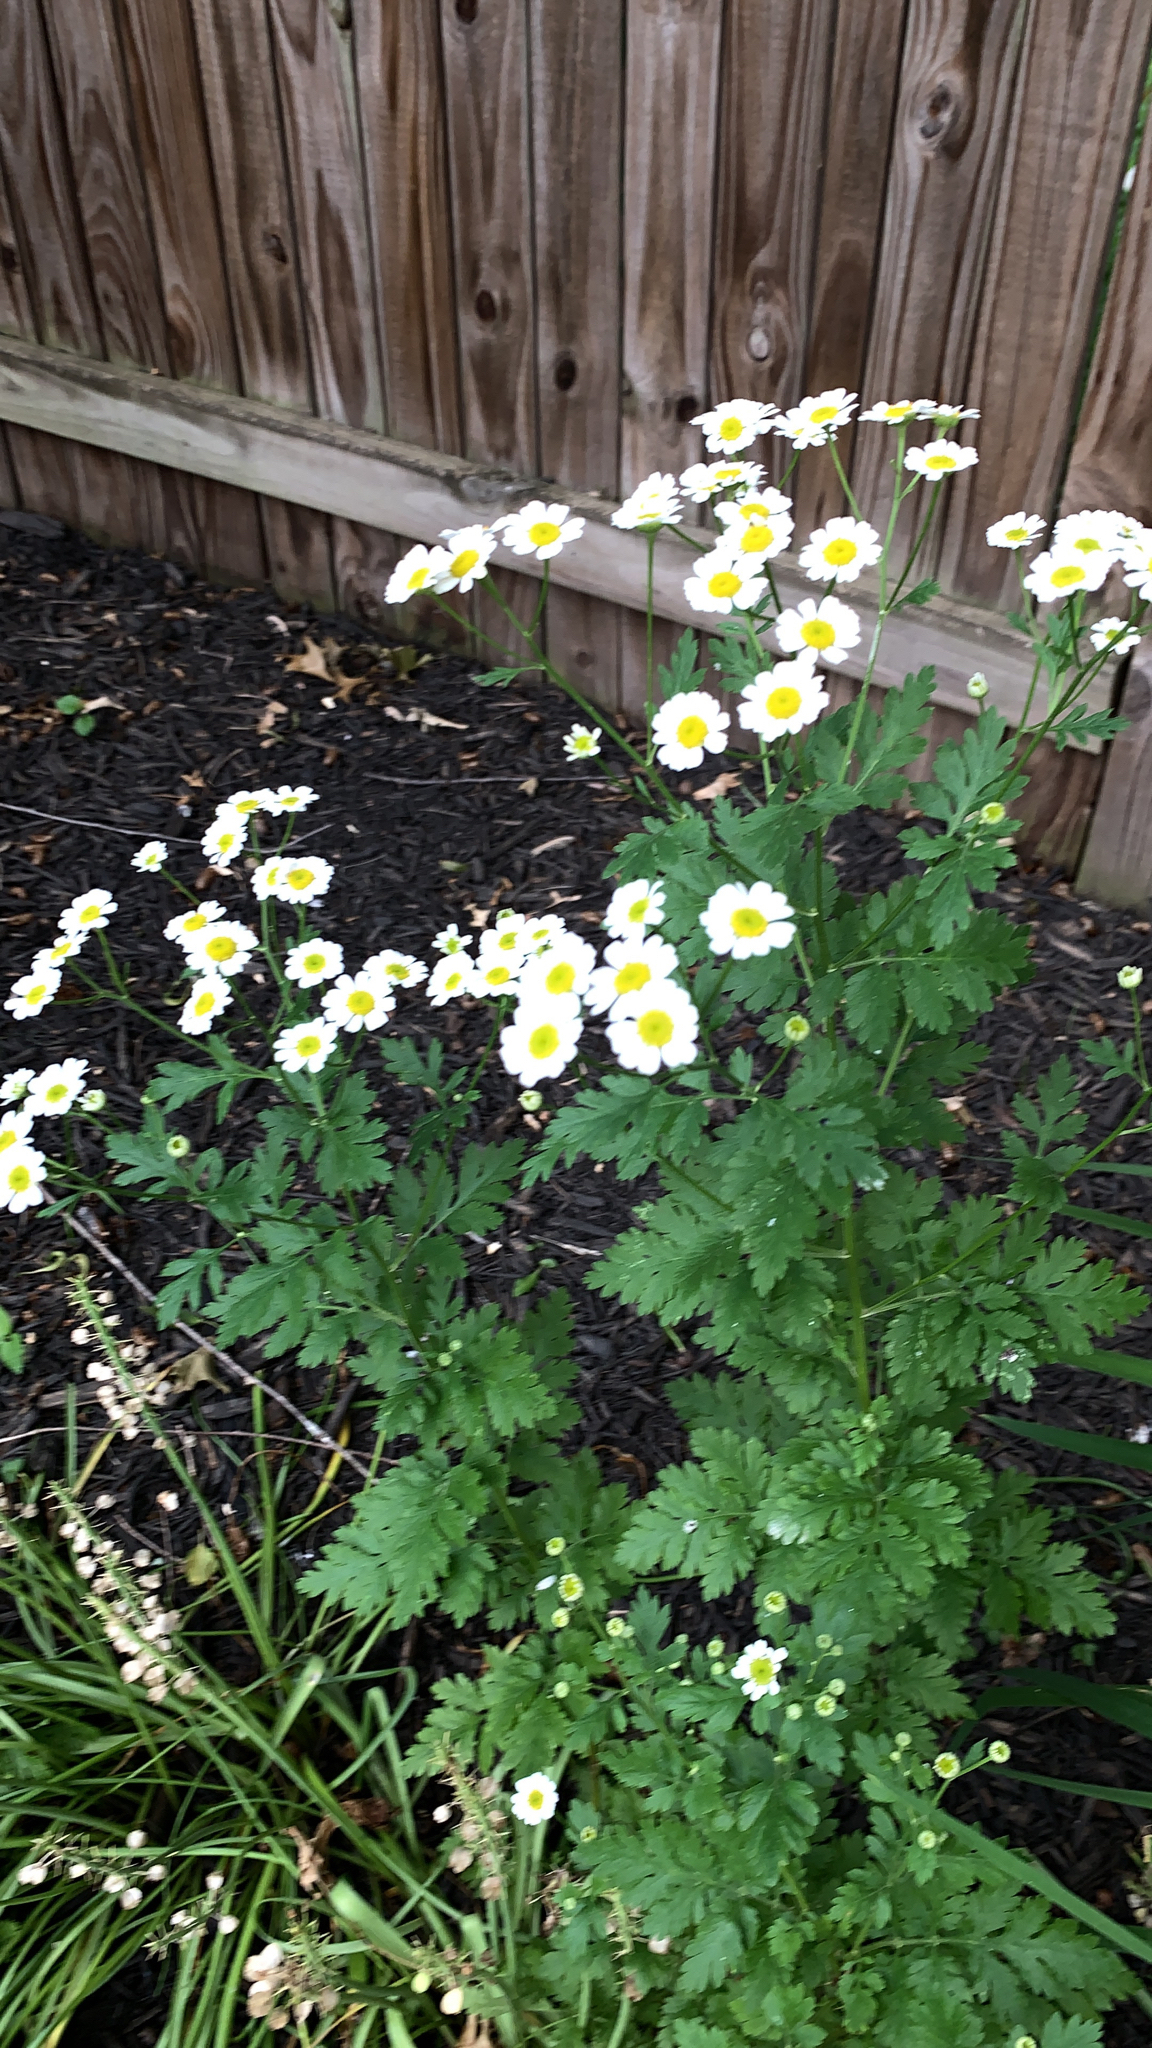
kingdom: Plantae
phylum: Tracheophyta
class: Magnoliopsida
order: Asterales
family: Asteraceae
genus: Tanacetum
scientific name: Tanacetum parthenium
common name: Feverfew
